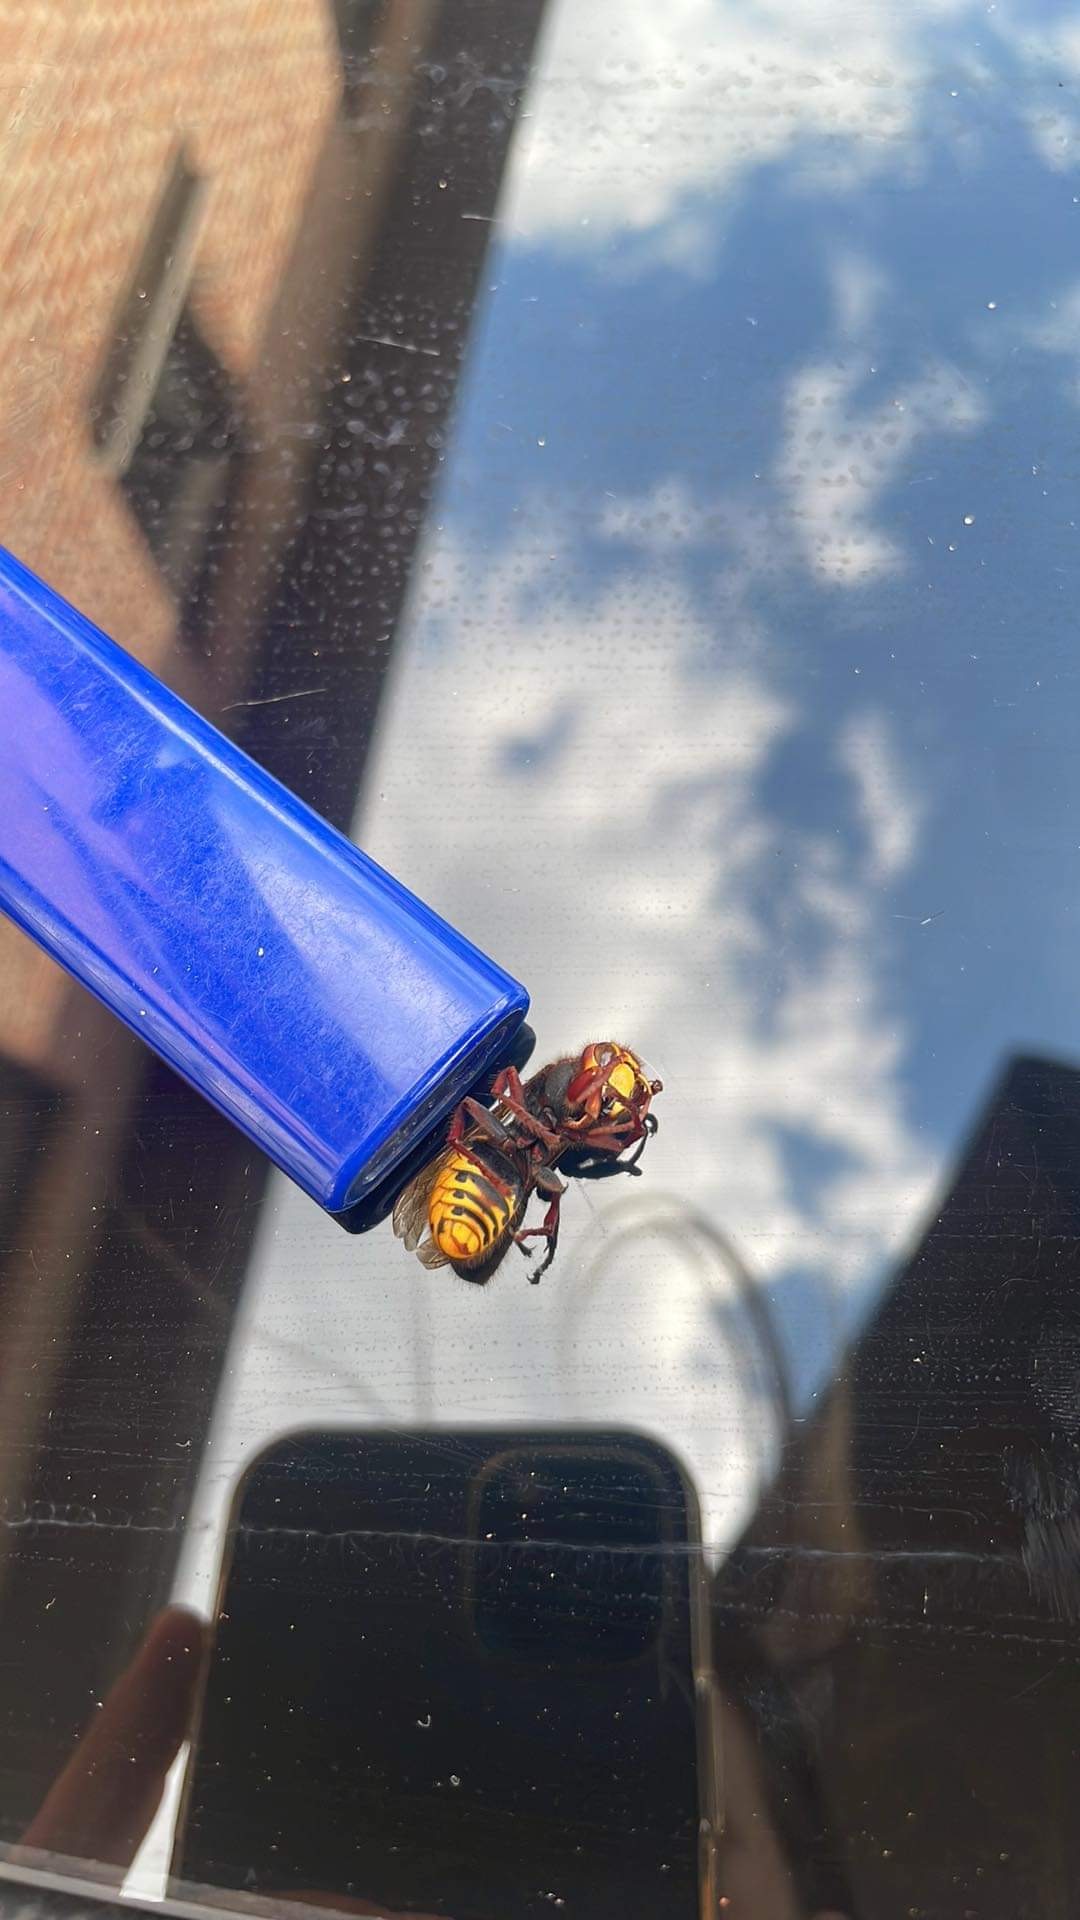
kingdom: Animalia
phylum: Arthropoda
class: Insecta
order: Hymenoptera
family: Vespidae
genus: Vespa
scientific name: Vespa crabro
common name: Hornet
